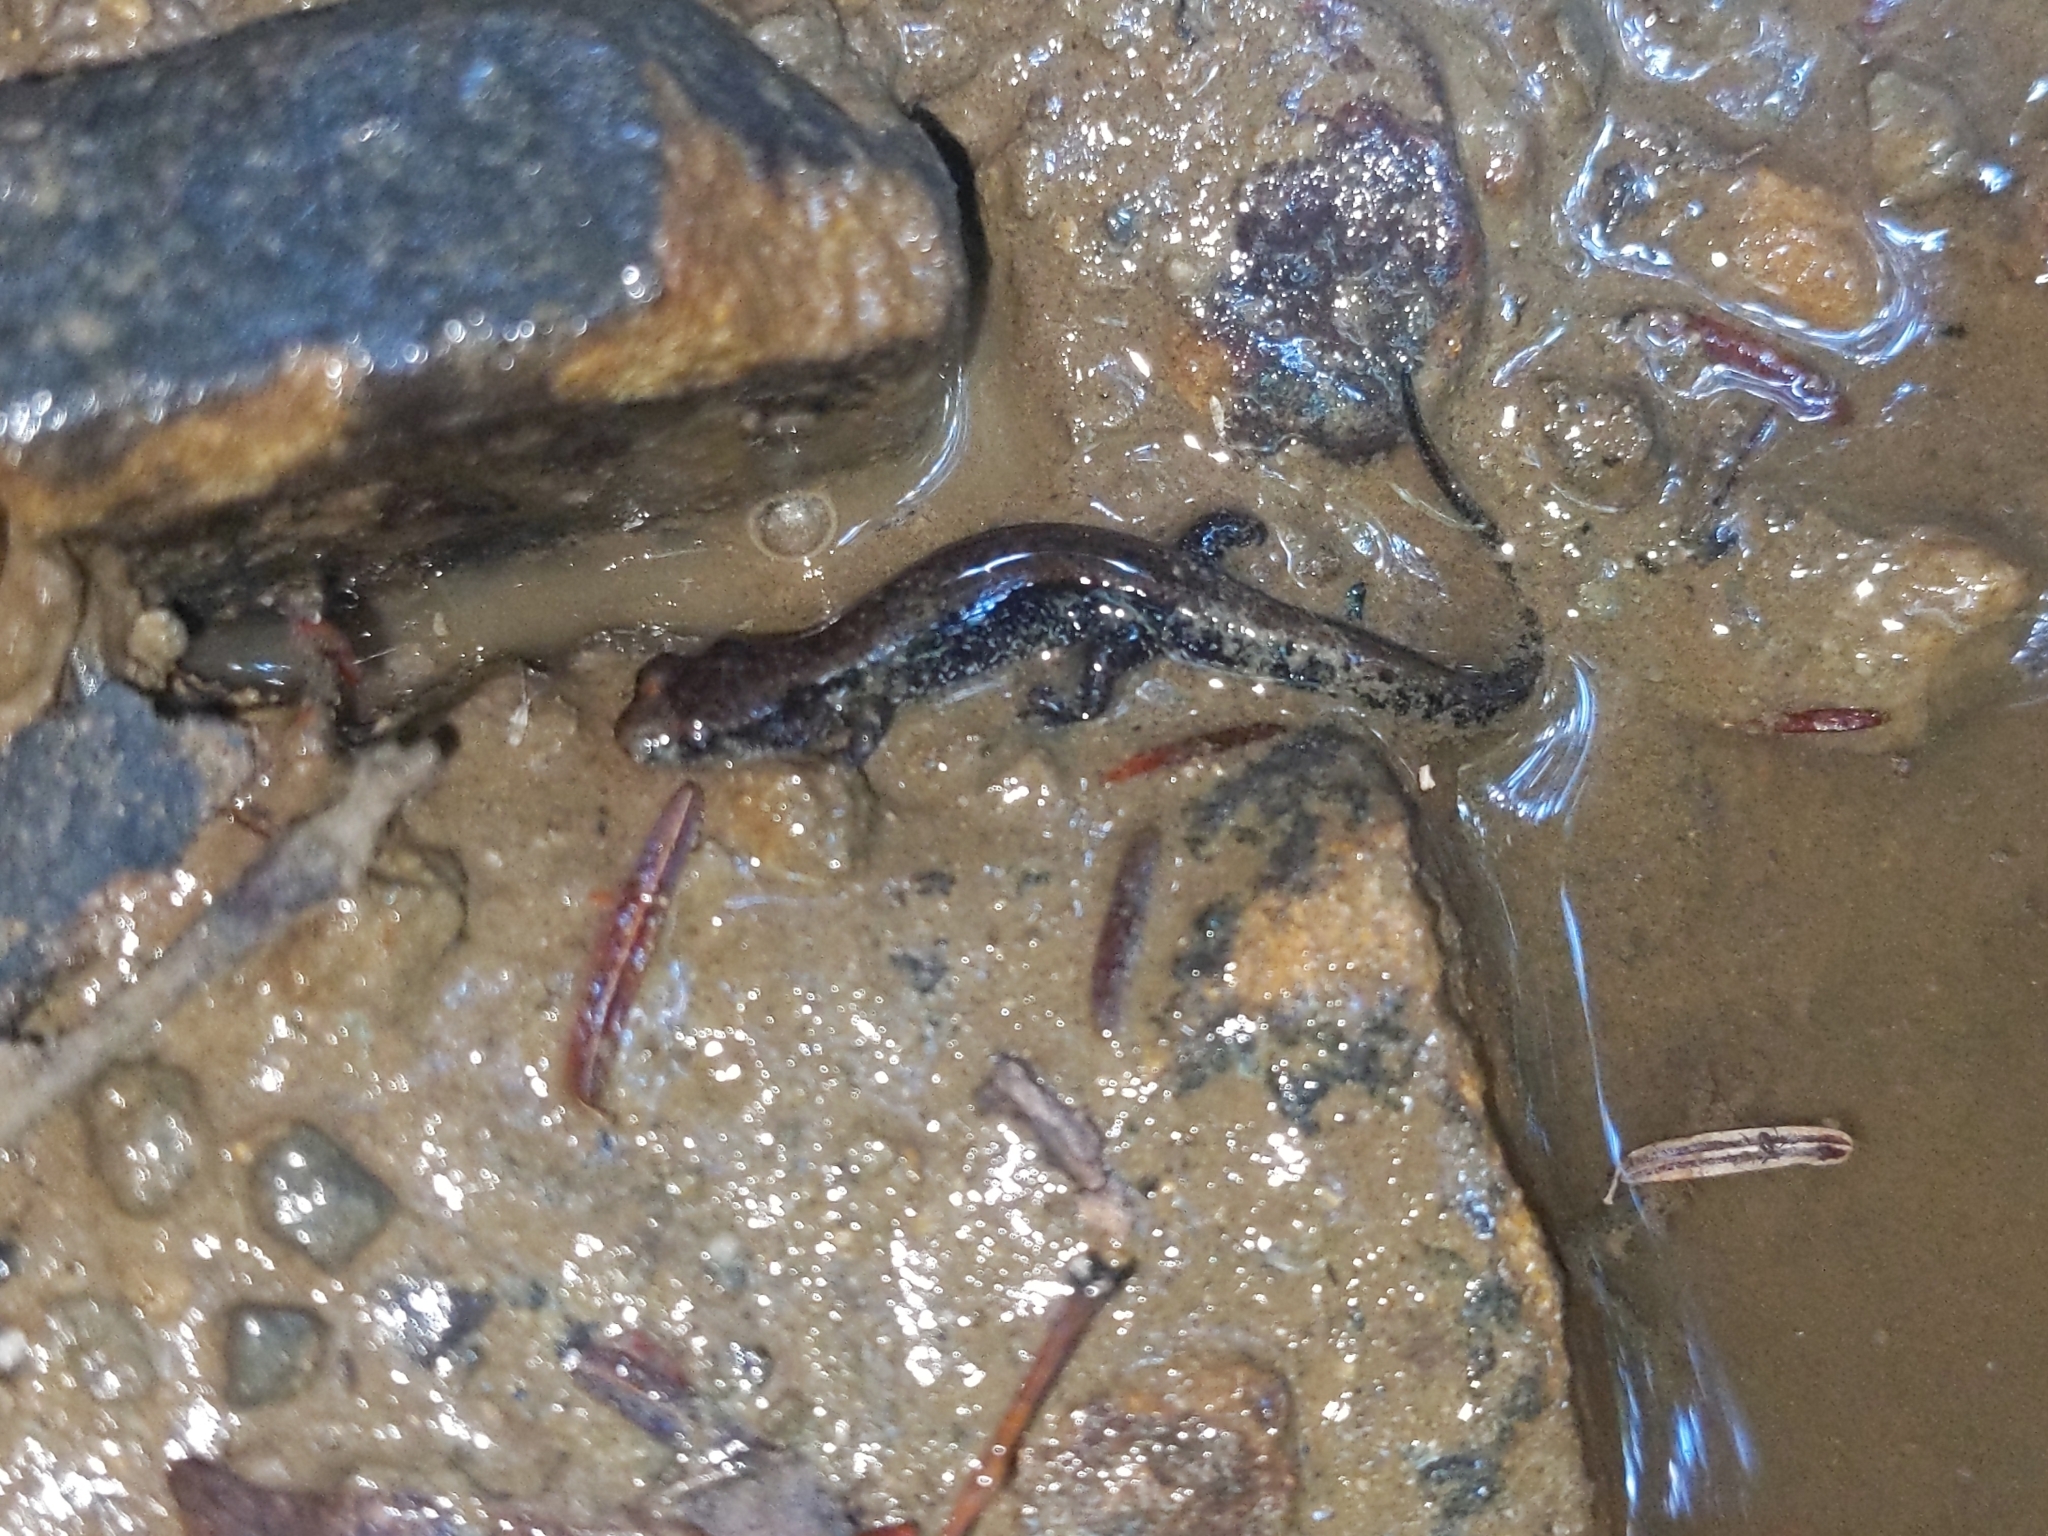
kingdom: Animalia
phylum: Chordata
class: Amphibia
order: Caudata
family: Plethodontidae
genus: Desmognathus
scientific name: Desmognathus ochrophaeus
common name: Allegheny mountain dusky salamander
